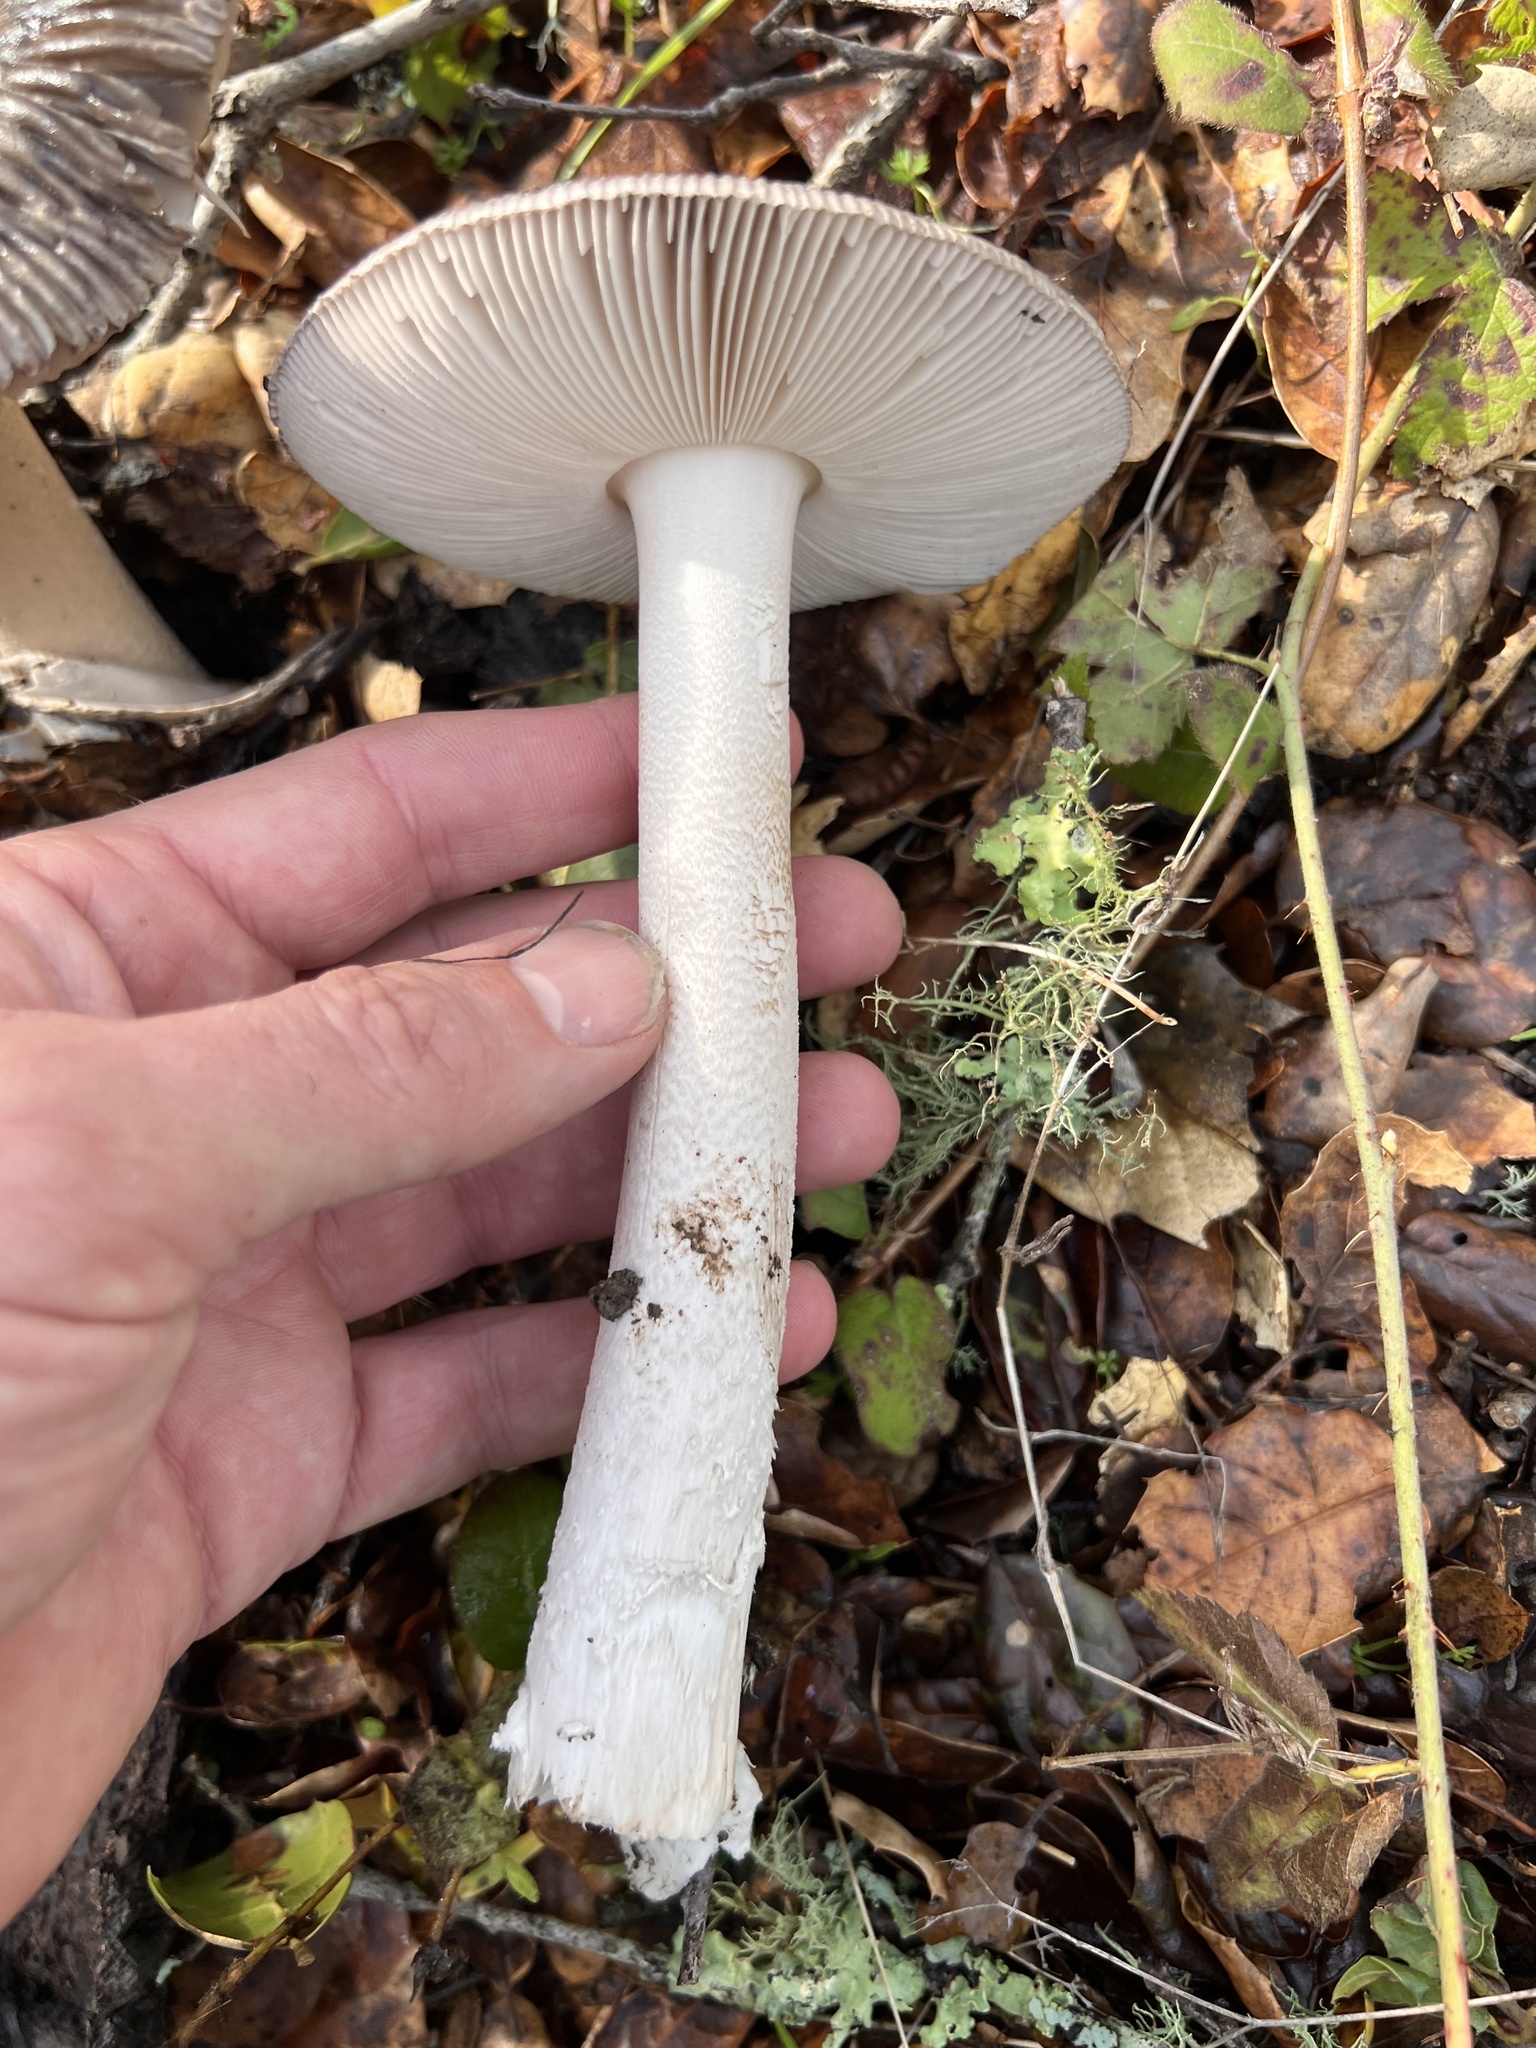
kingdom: Fungi
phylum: Basidiomycota
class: Agaricomycetes
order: Agaricales
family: Amanitaceae
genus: Amanita
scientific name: Amanita constricta
